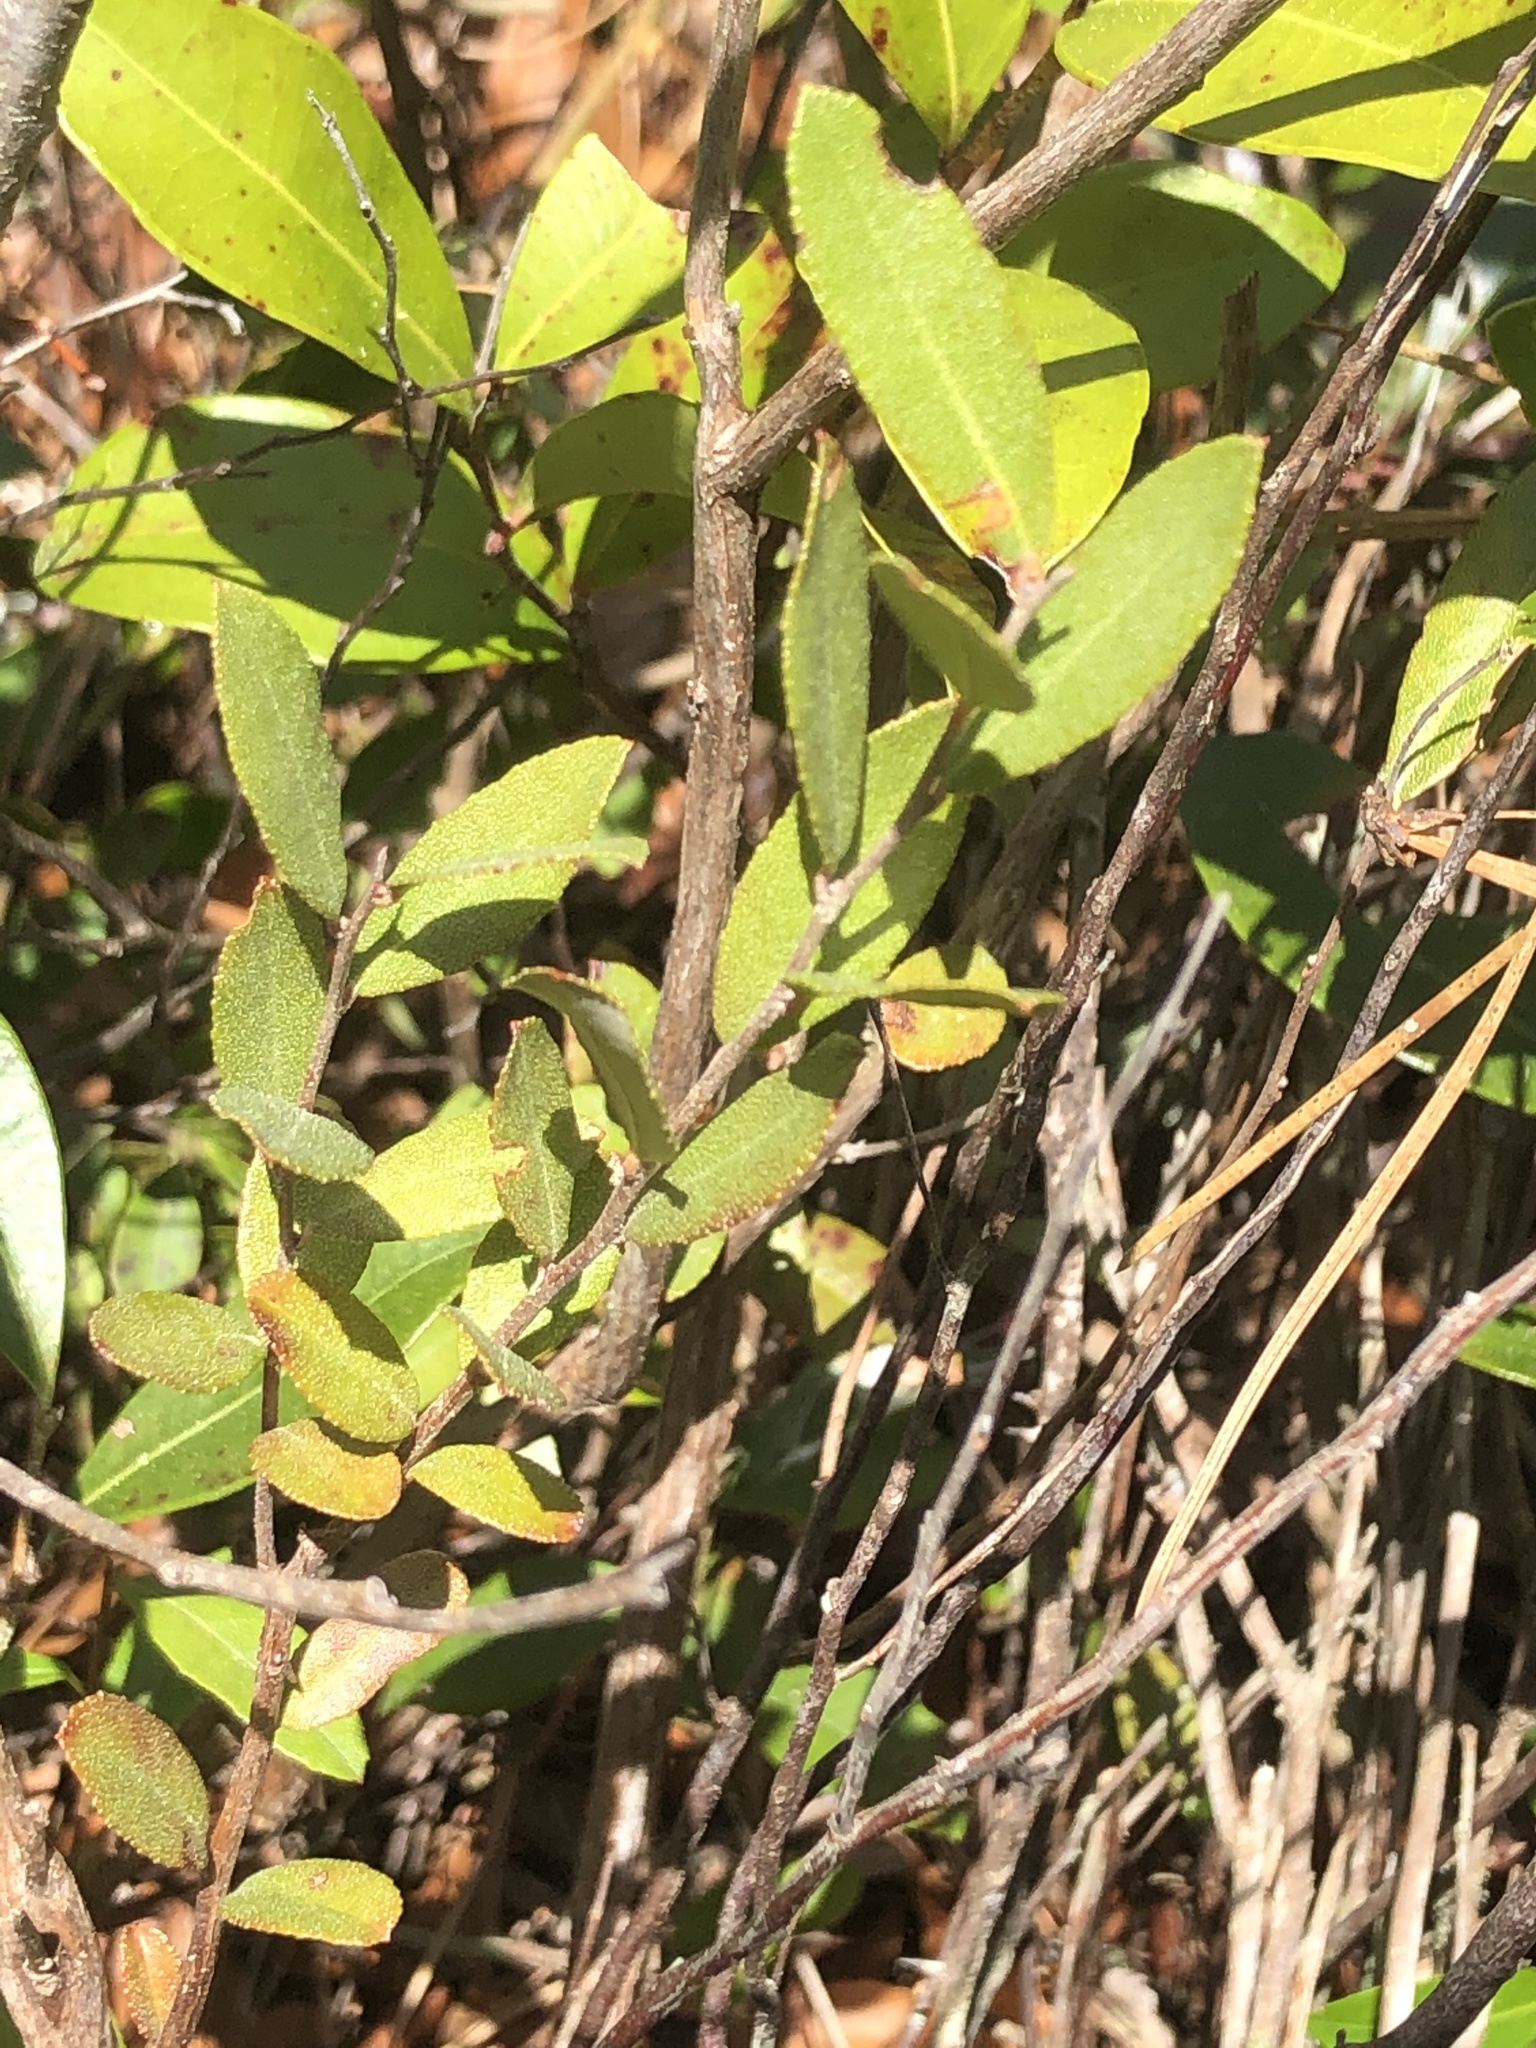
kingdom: Plantae
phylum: Tracheophyta
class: Magnoliopsida
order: Ericales
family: Ericaceae
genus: Chamaedaphne
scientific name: Chamaedaphne calyculata
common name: Leatherleaf
